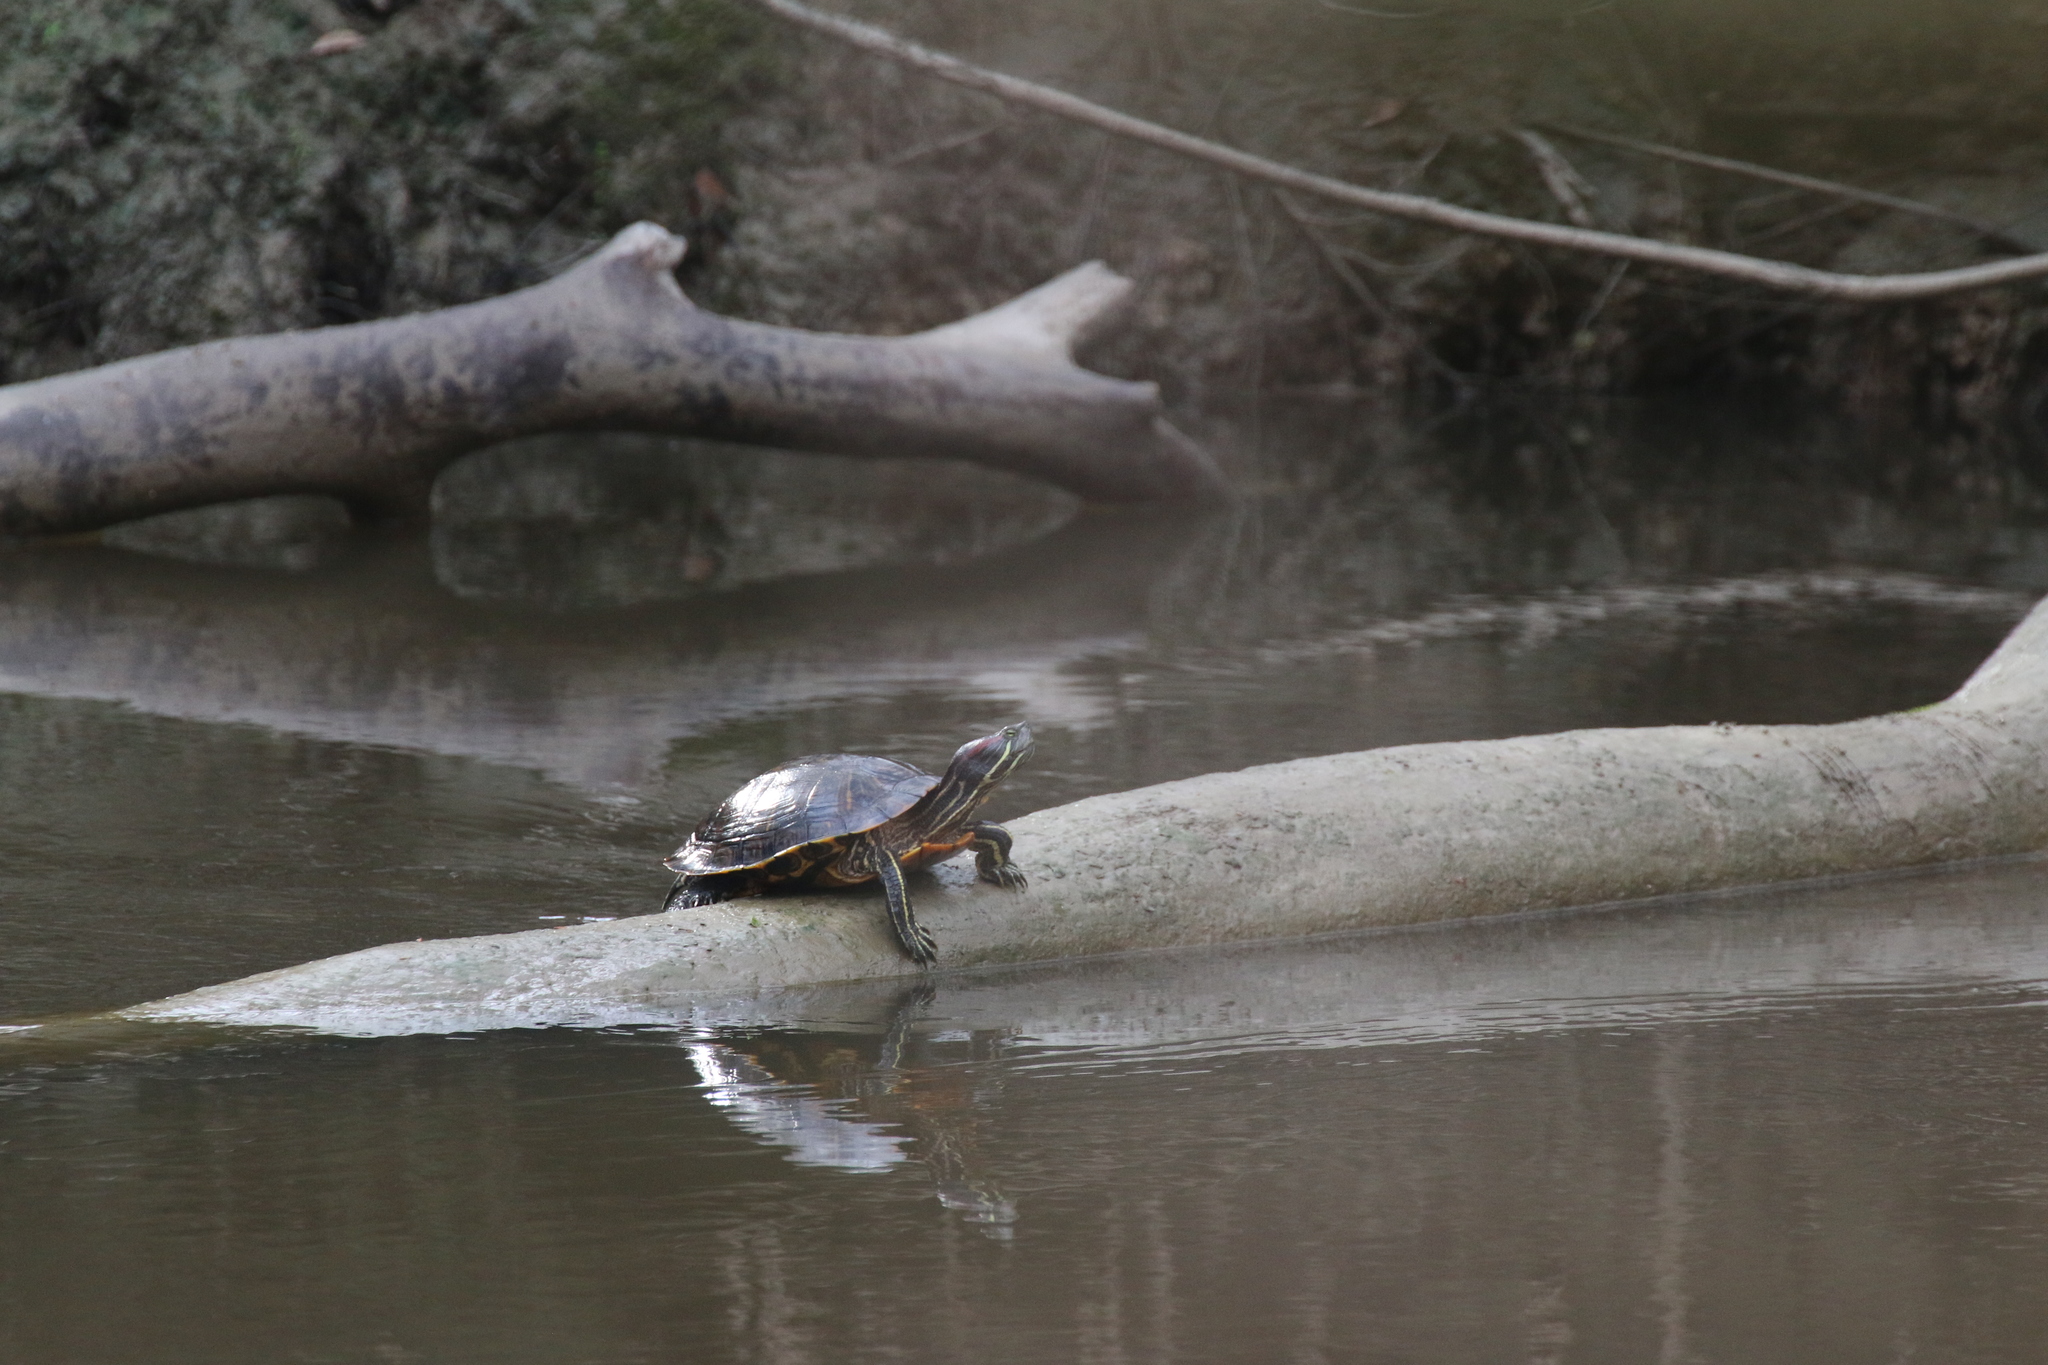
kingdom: Animalia
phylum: Chordata
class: Testudines
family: Emydidae
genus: Trachemys
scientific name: Trachemys scripta
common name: Slider
